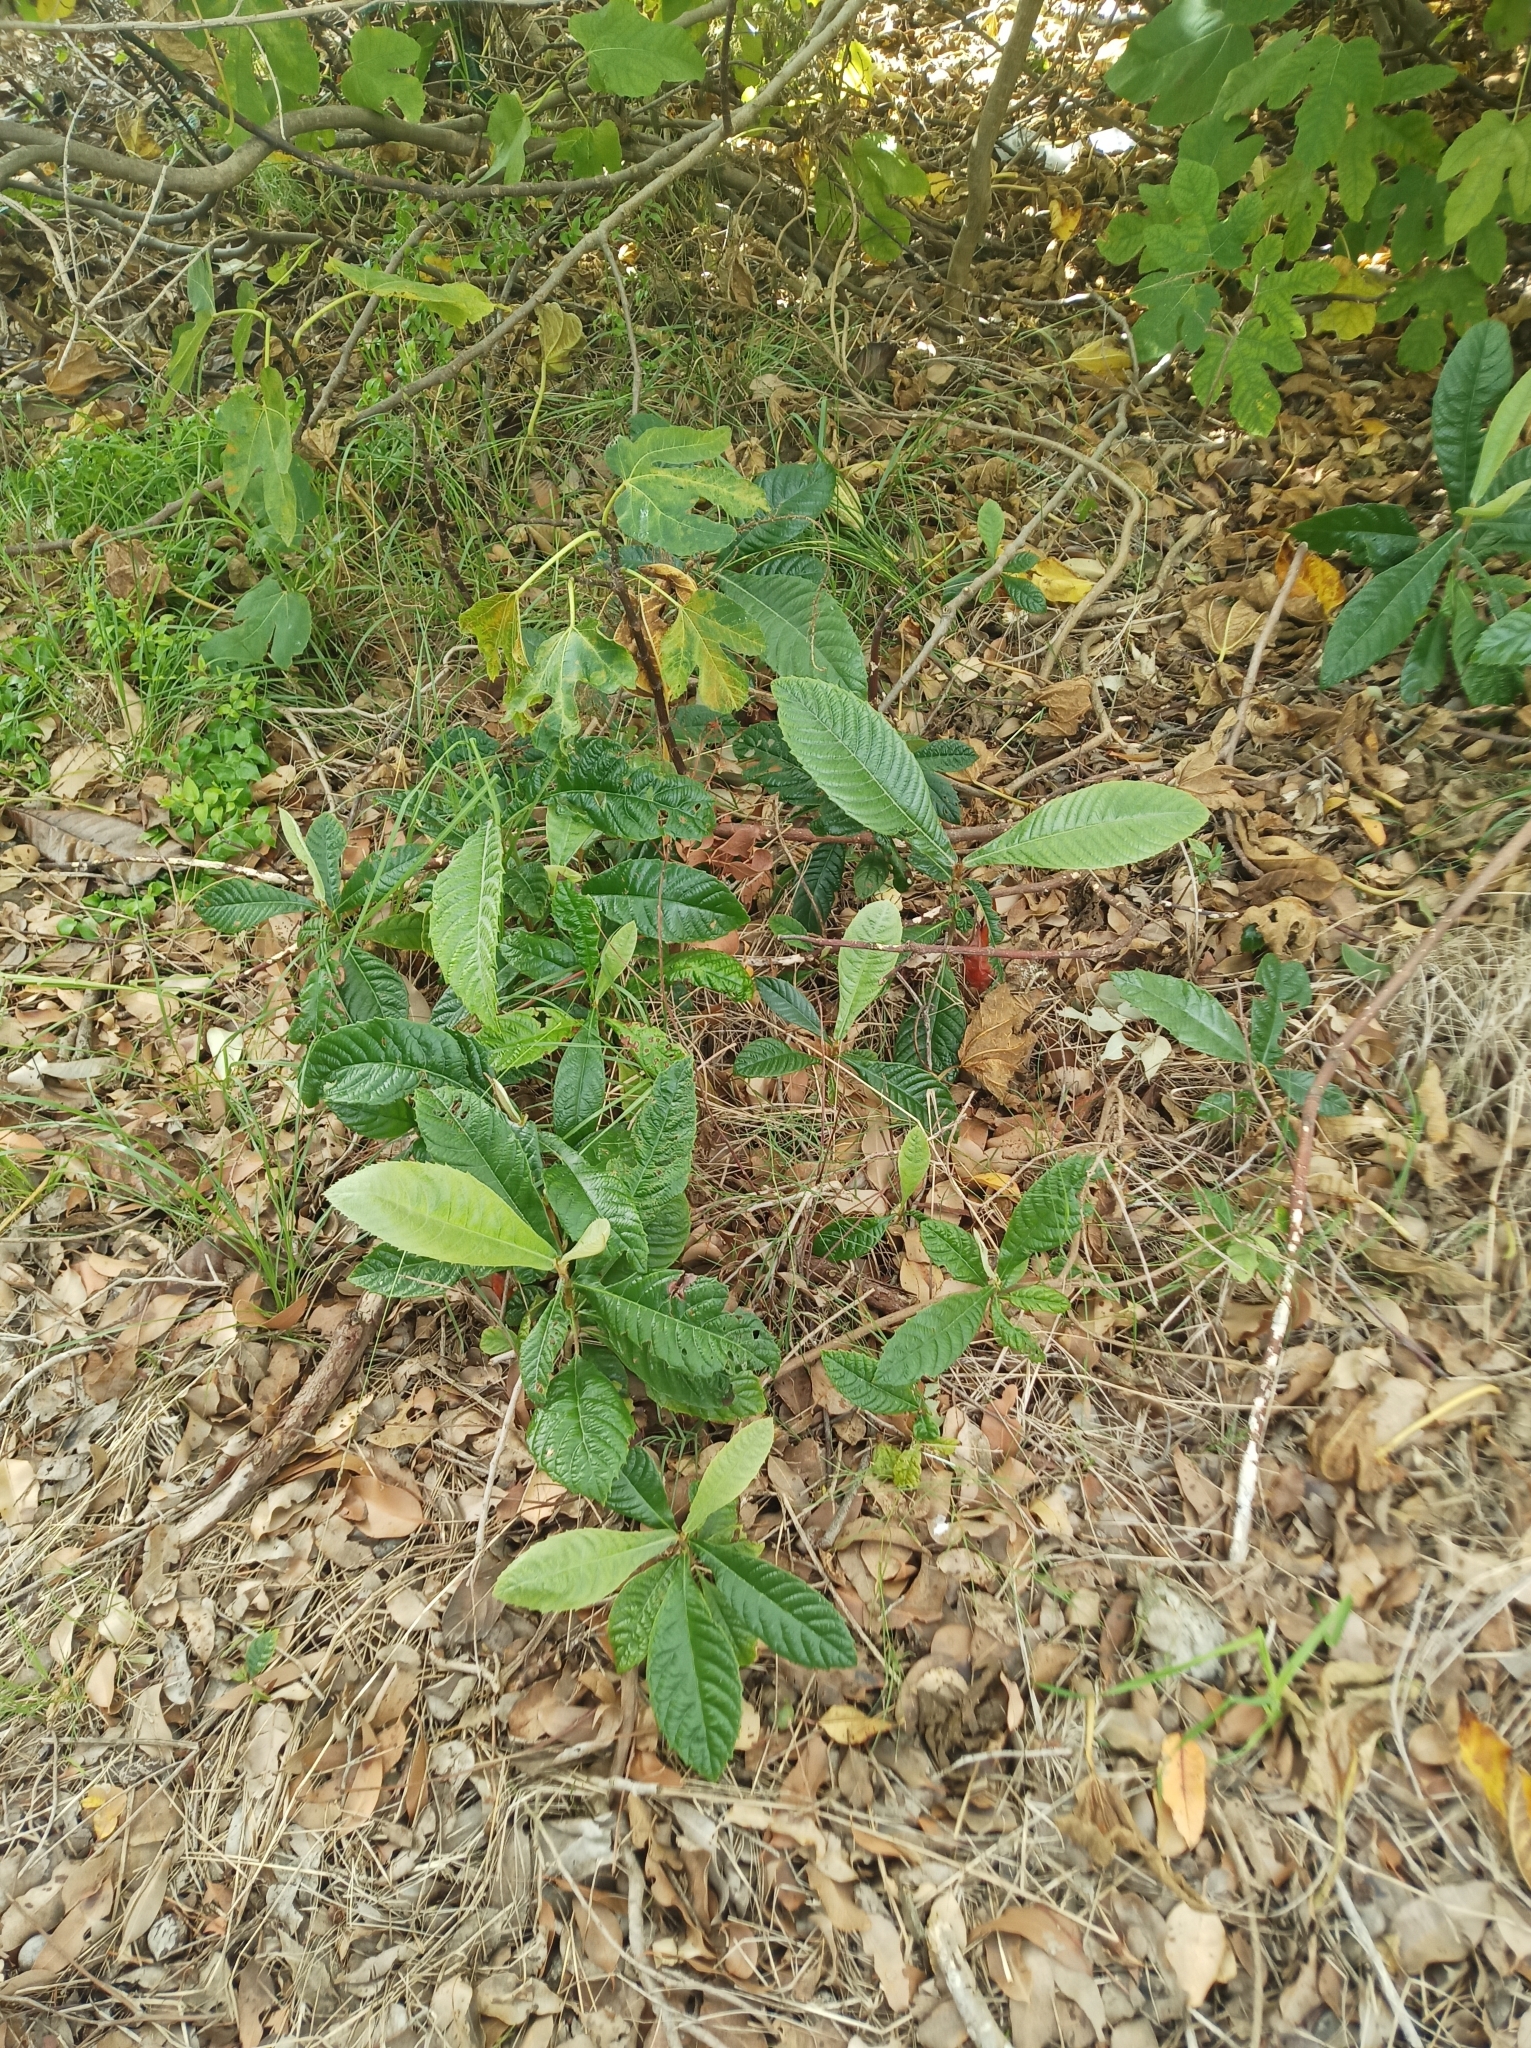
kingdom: Plantae
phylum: Tracheophyta
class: Magnoliopsida
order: Rosales
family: Rosaceae
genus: Rhaphiolepis
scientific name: Rhaphiolepis bibas
